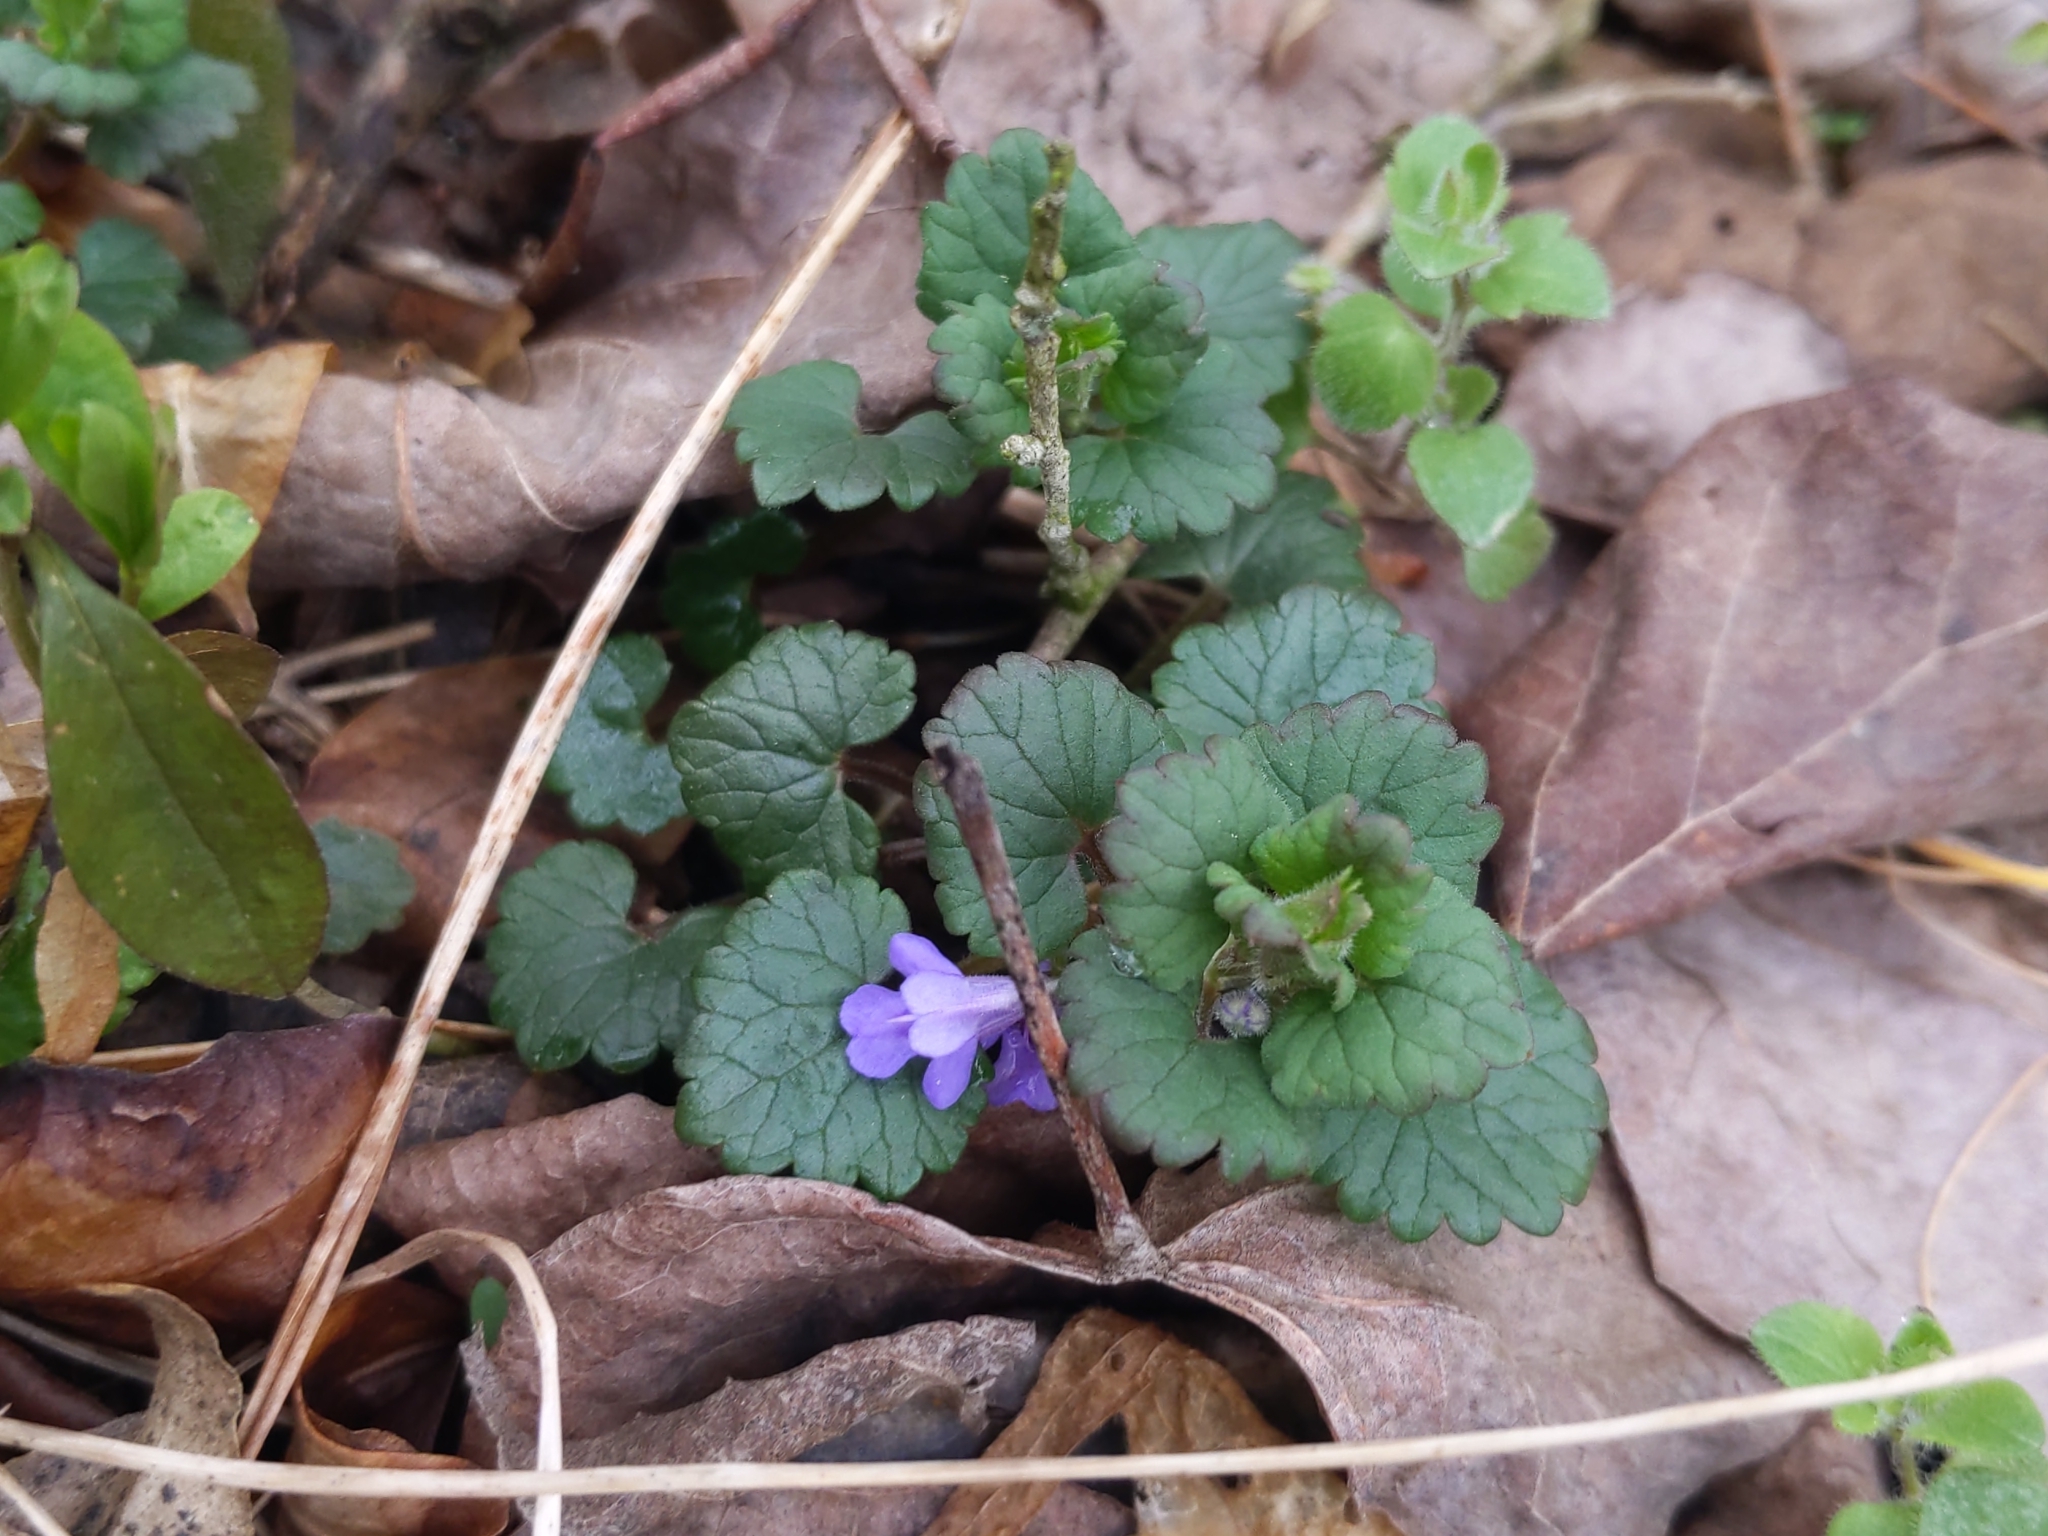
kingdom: Plantae
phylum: Tracheophyta
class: Magnoliopsida
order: Lamiales
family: Lamiaceae
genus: Glechoma
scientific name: Glechoma hederacea
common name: Ground ivy
